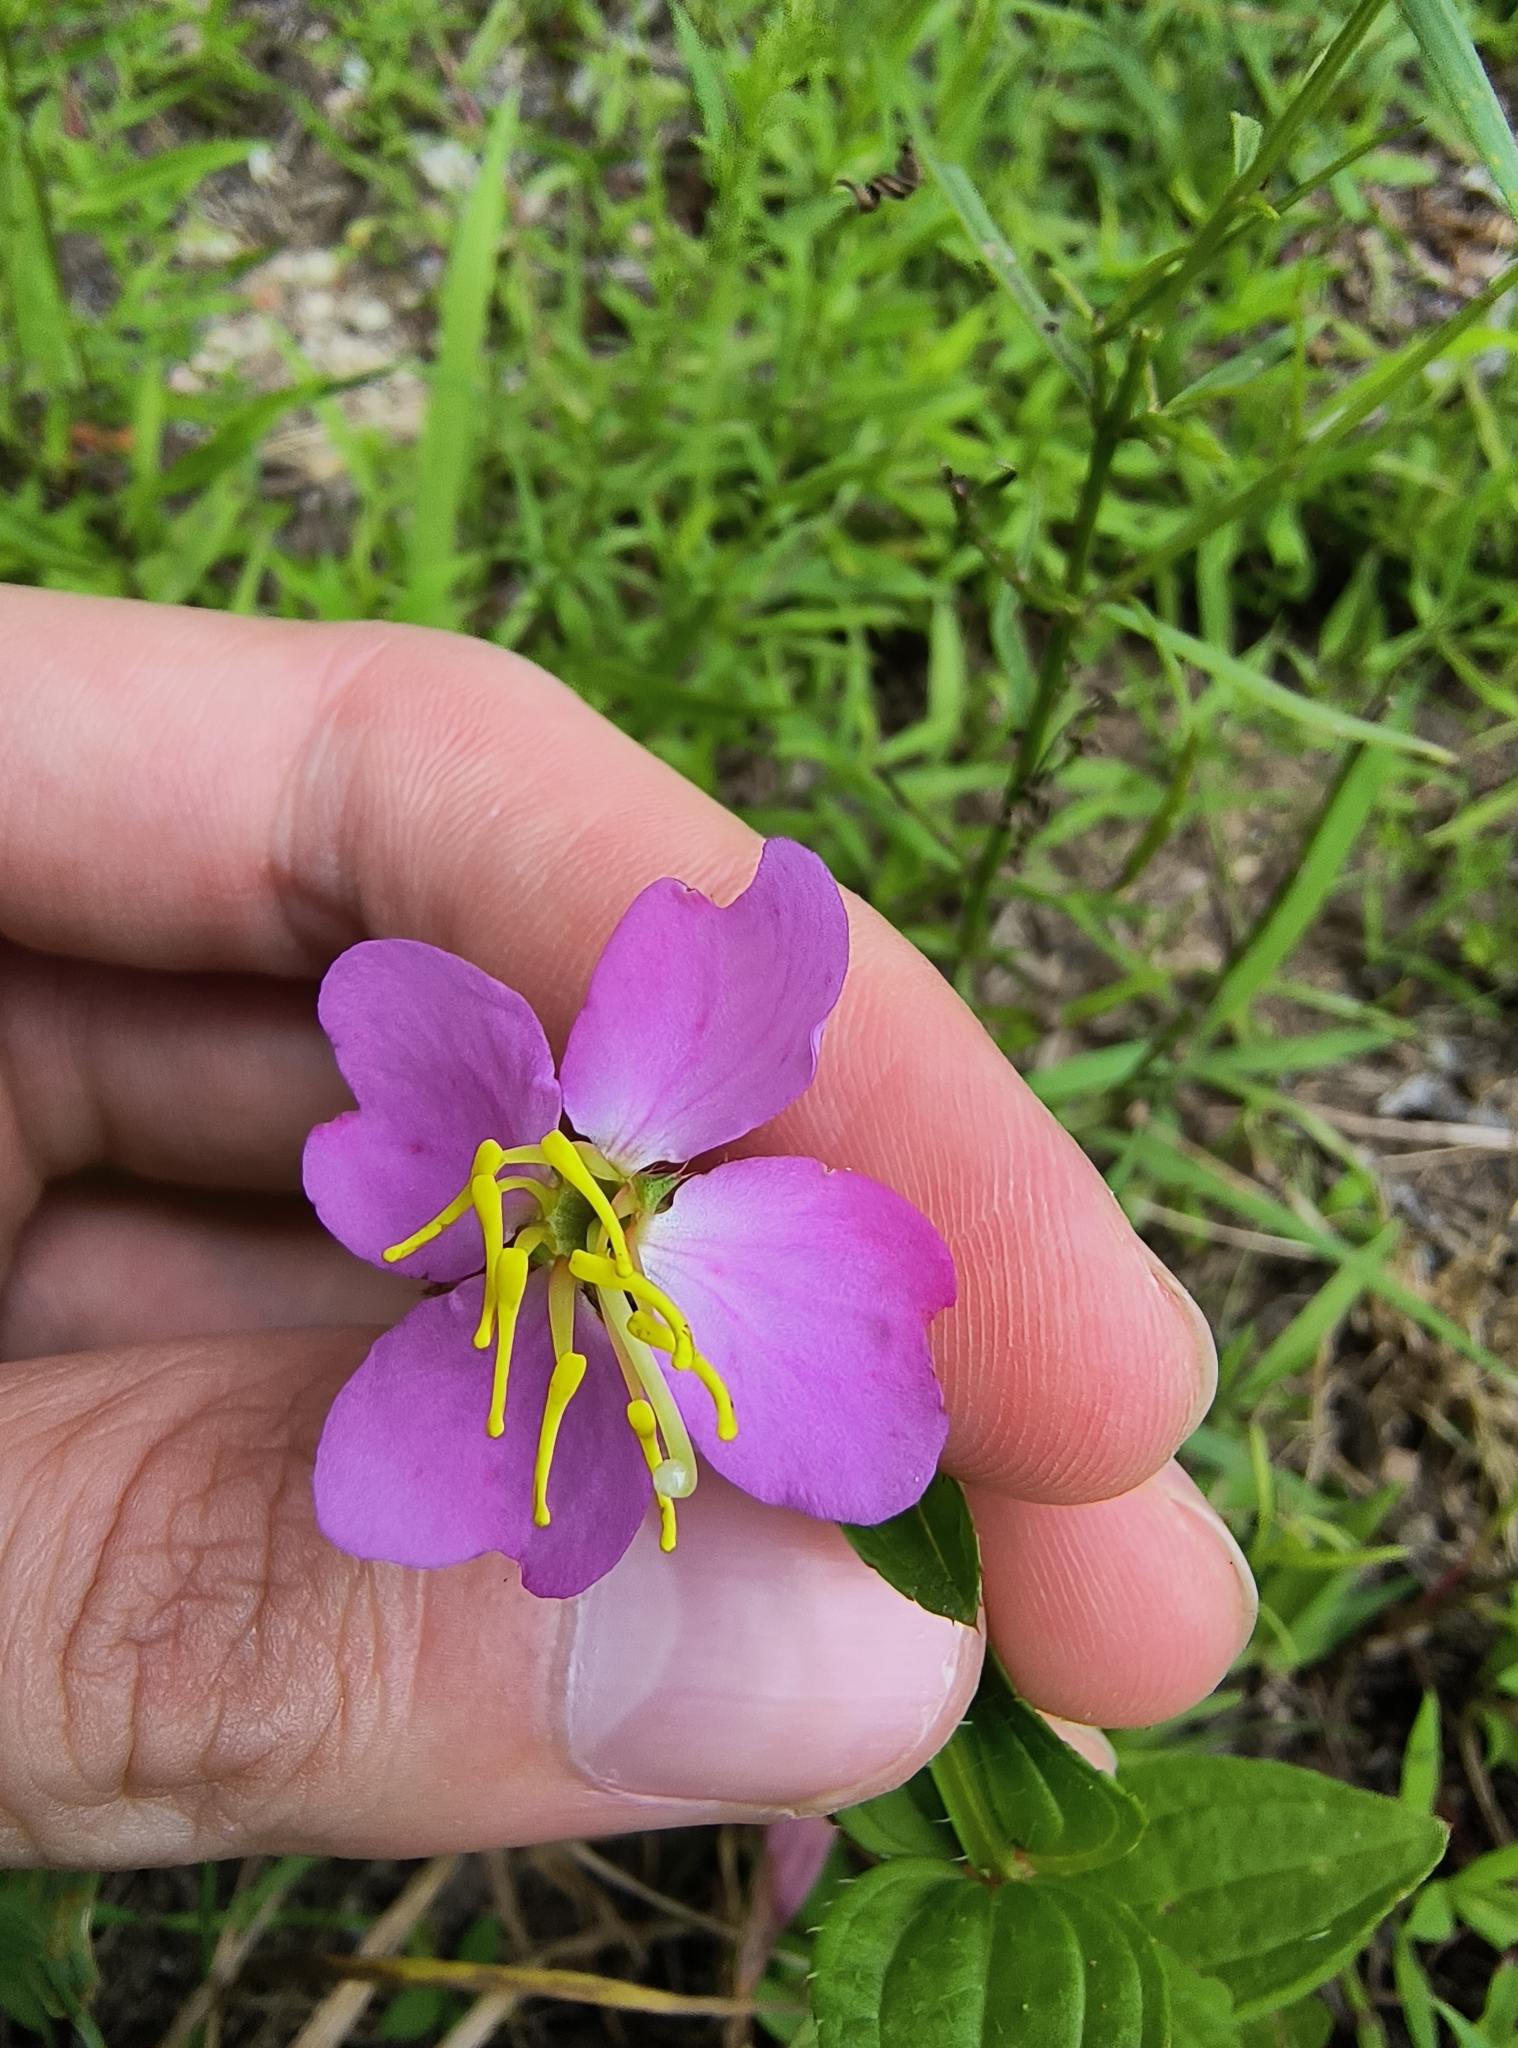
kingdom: Plantae
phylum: Tracheophyta
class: Magnoliopsida
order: Myrtales
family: Melastomataceae
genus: Rhexia
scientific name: Rhexia virginica
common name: Common meadow beauty
